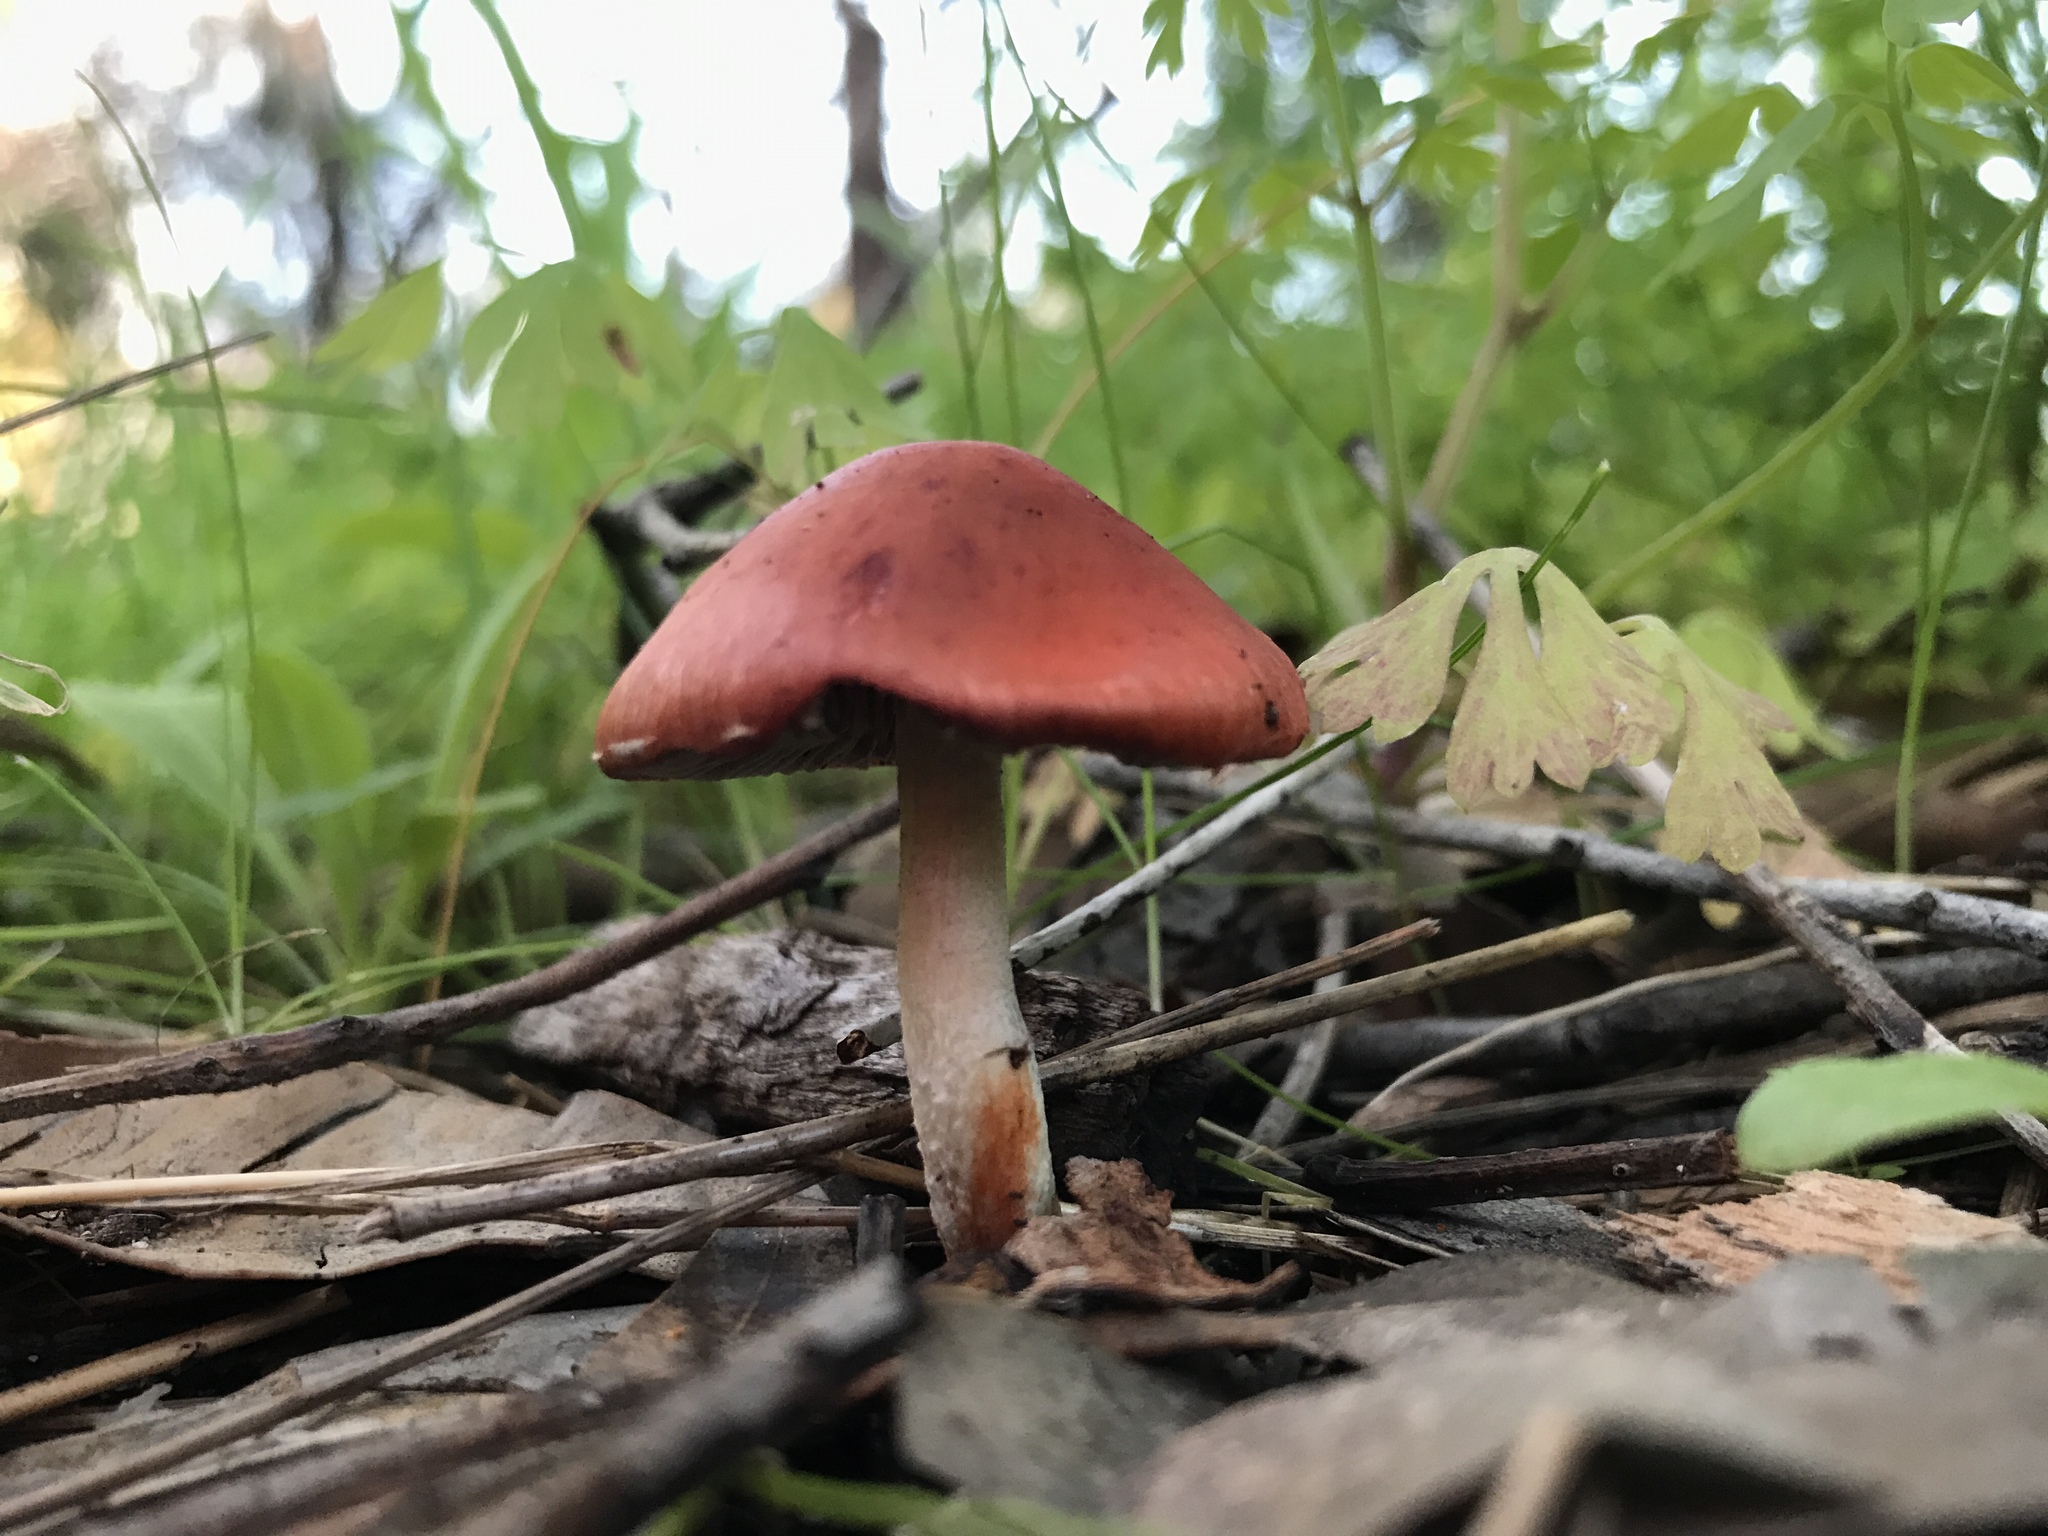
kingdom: Fungi
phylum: Basidiomycota
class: Agaricomycetes
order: Agaricales
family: Strophariaceae
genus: Leratiomyces
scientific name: Leratiomyces ceres
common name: Redlead roundhead
